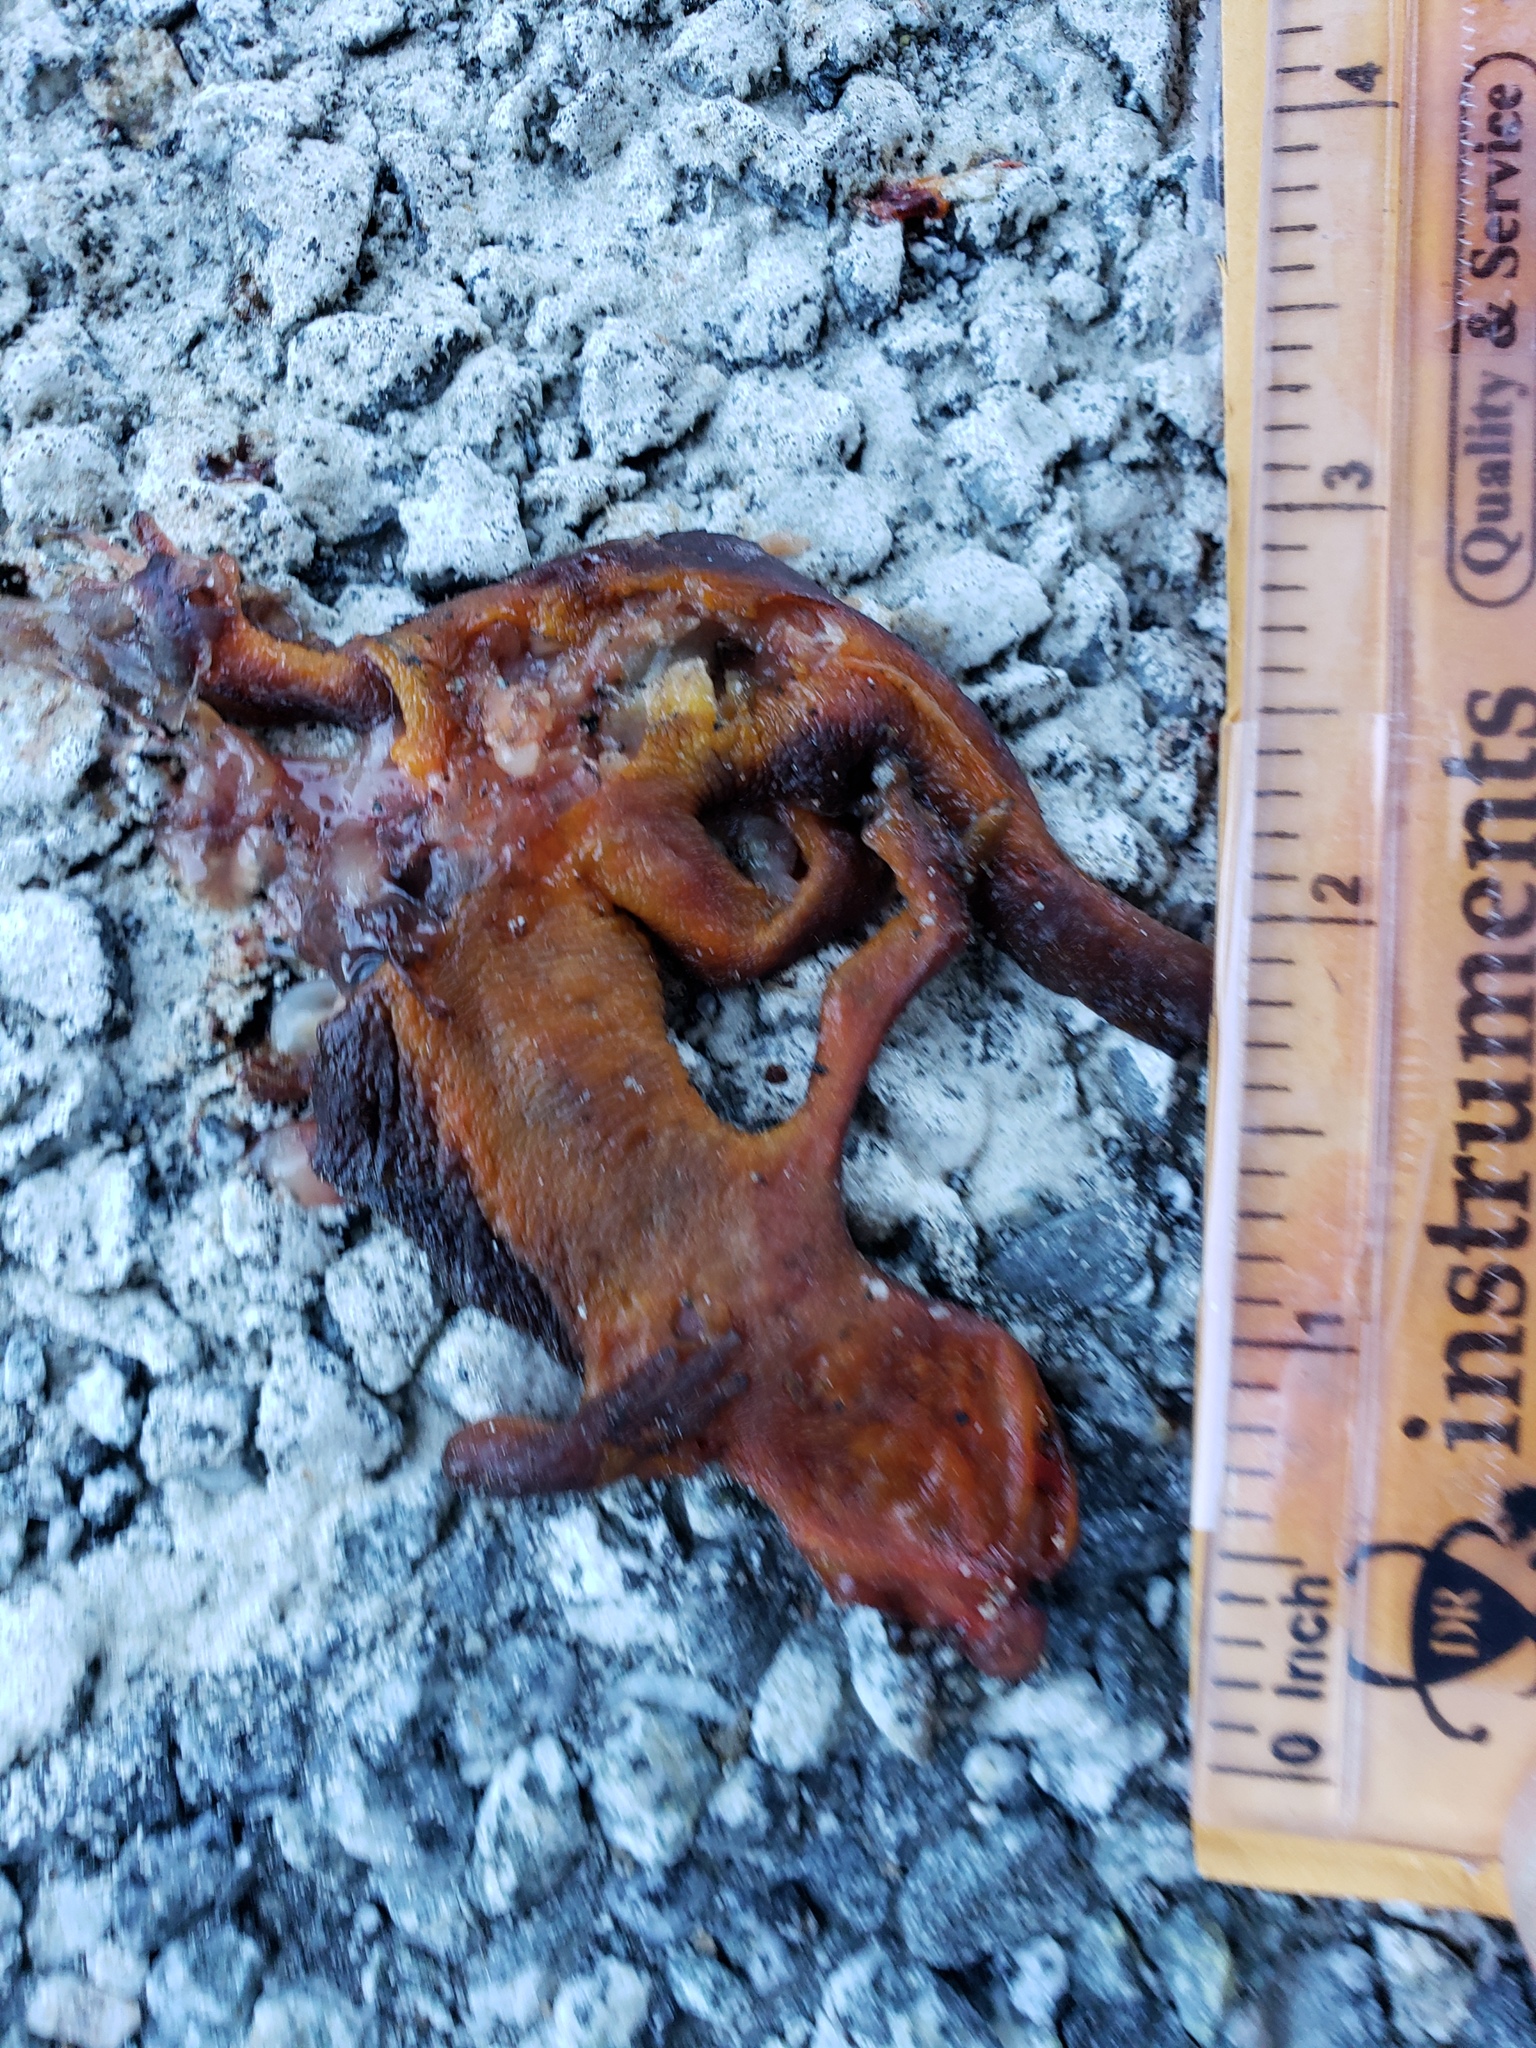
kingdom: Animalia
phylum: Chordata
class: Amphibia
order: Caudata
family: Salamandridae
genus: Taricha
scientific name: Taricha
